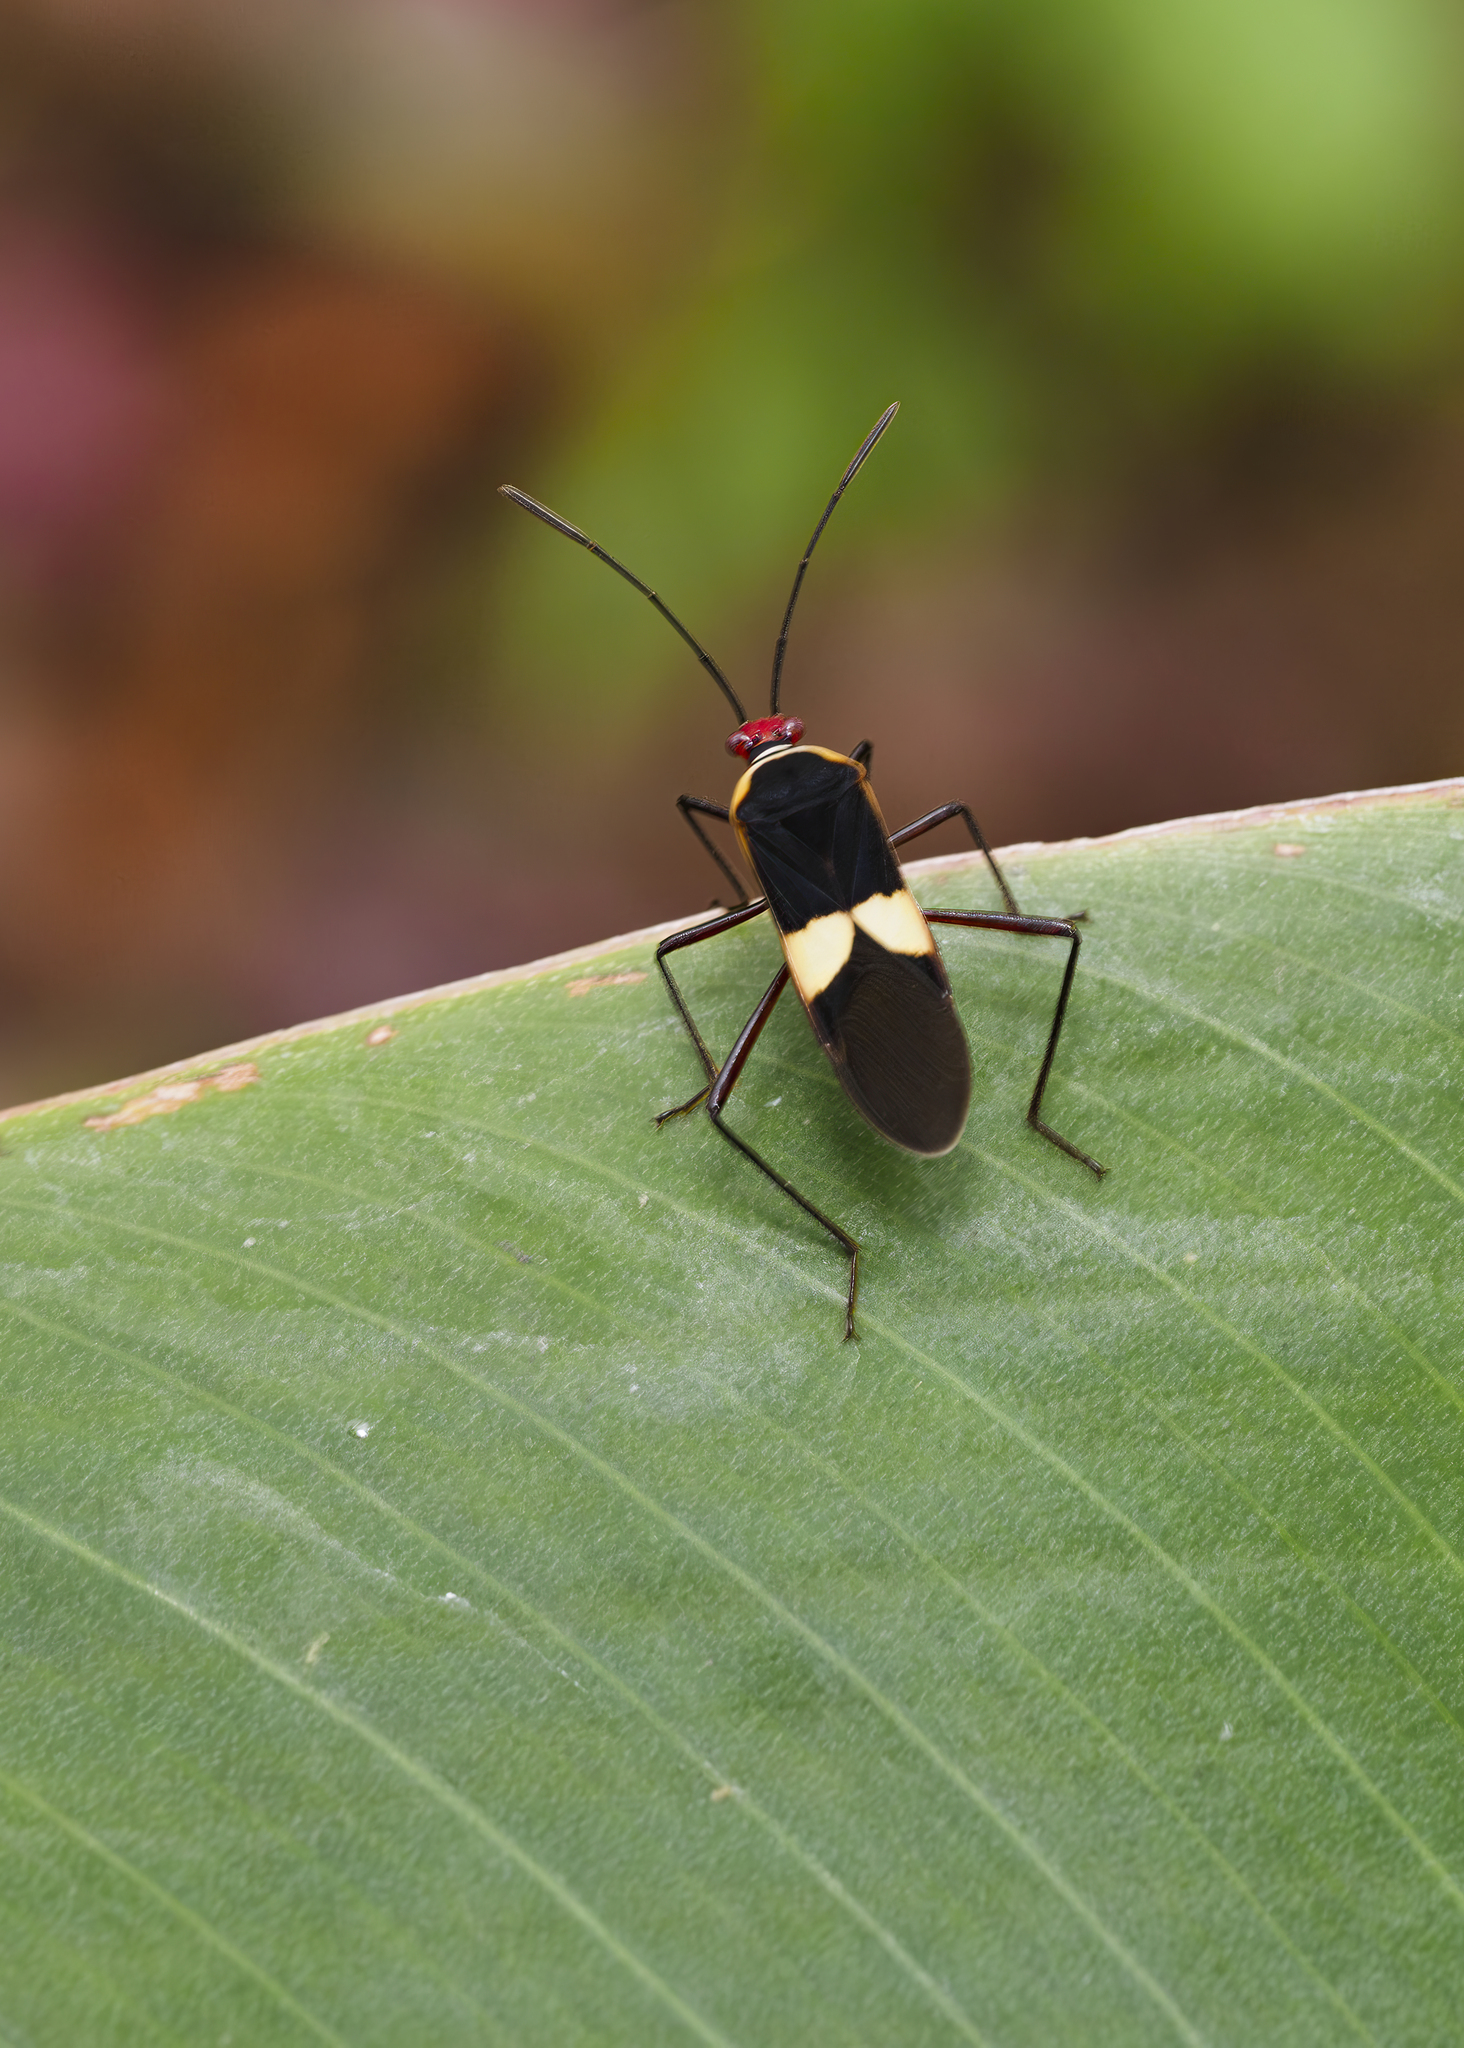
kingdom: Animalia
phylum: Arthropoda
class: Insecta
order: Hemiptera
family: Coreidae
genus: Hypselonotus
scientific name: Hypselonotus interruptus
